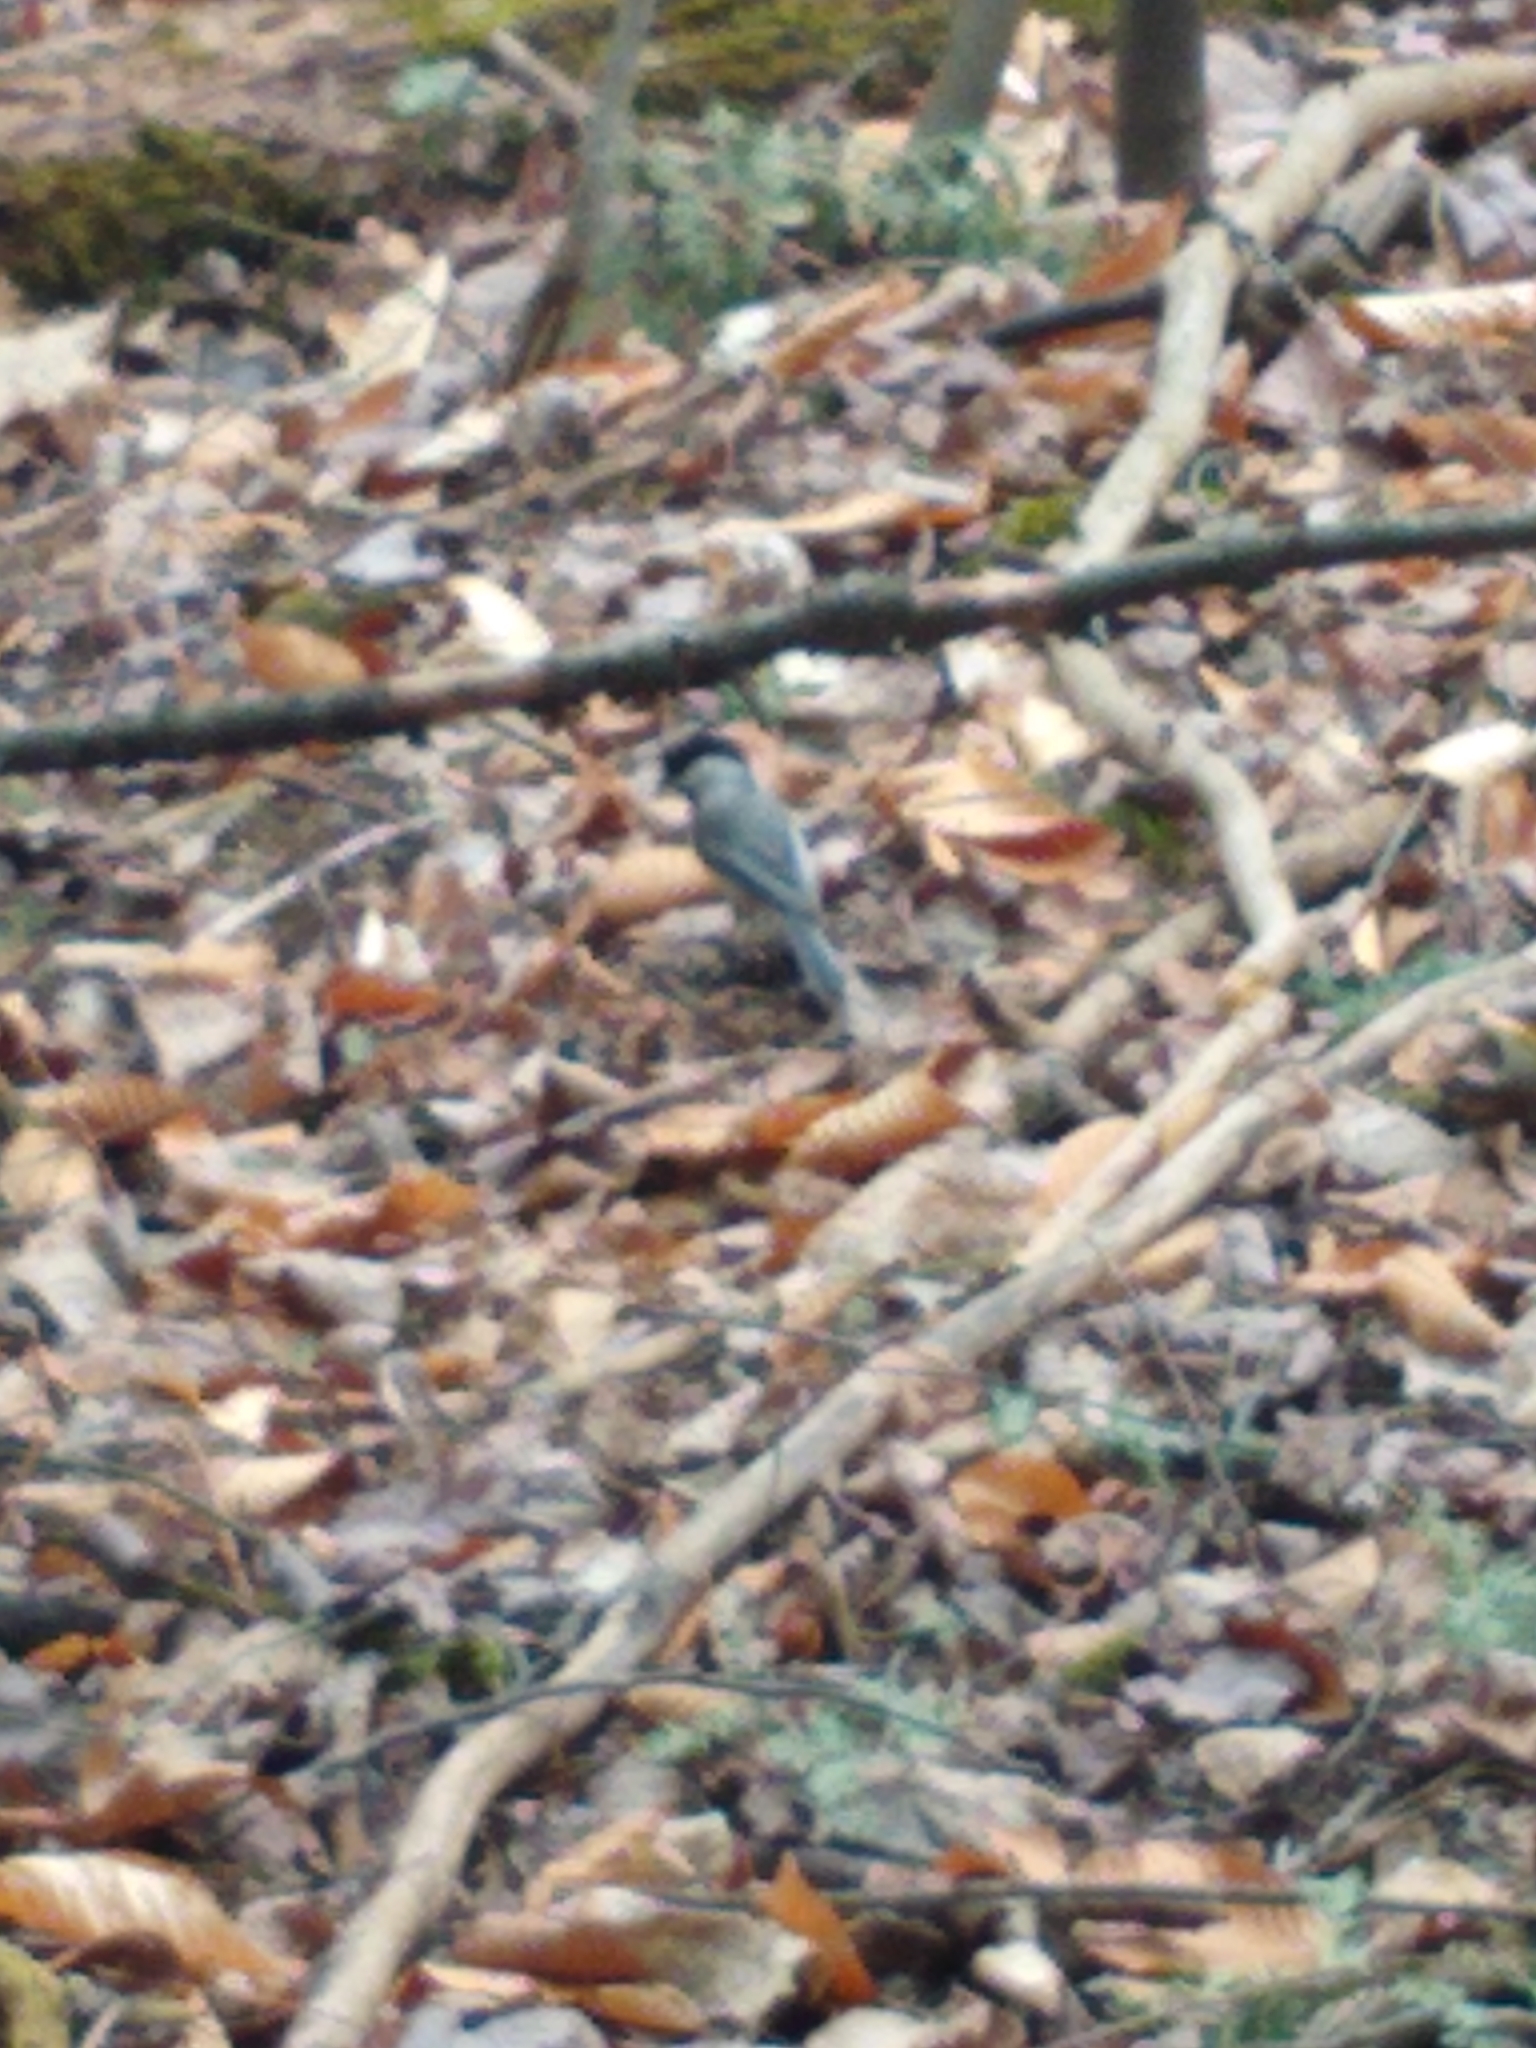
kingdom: Animalia
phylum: Chordata
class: Aves
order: Passeriformes
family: Paridae
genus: Poecile
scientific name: Poecile atricapillus
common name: Black-capped chickadee
